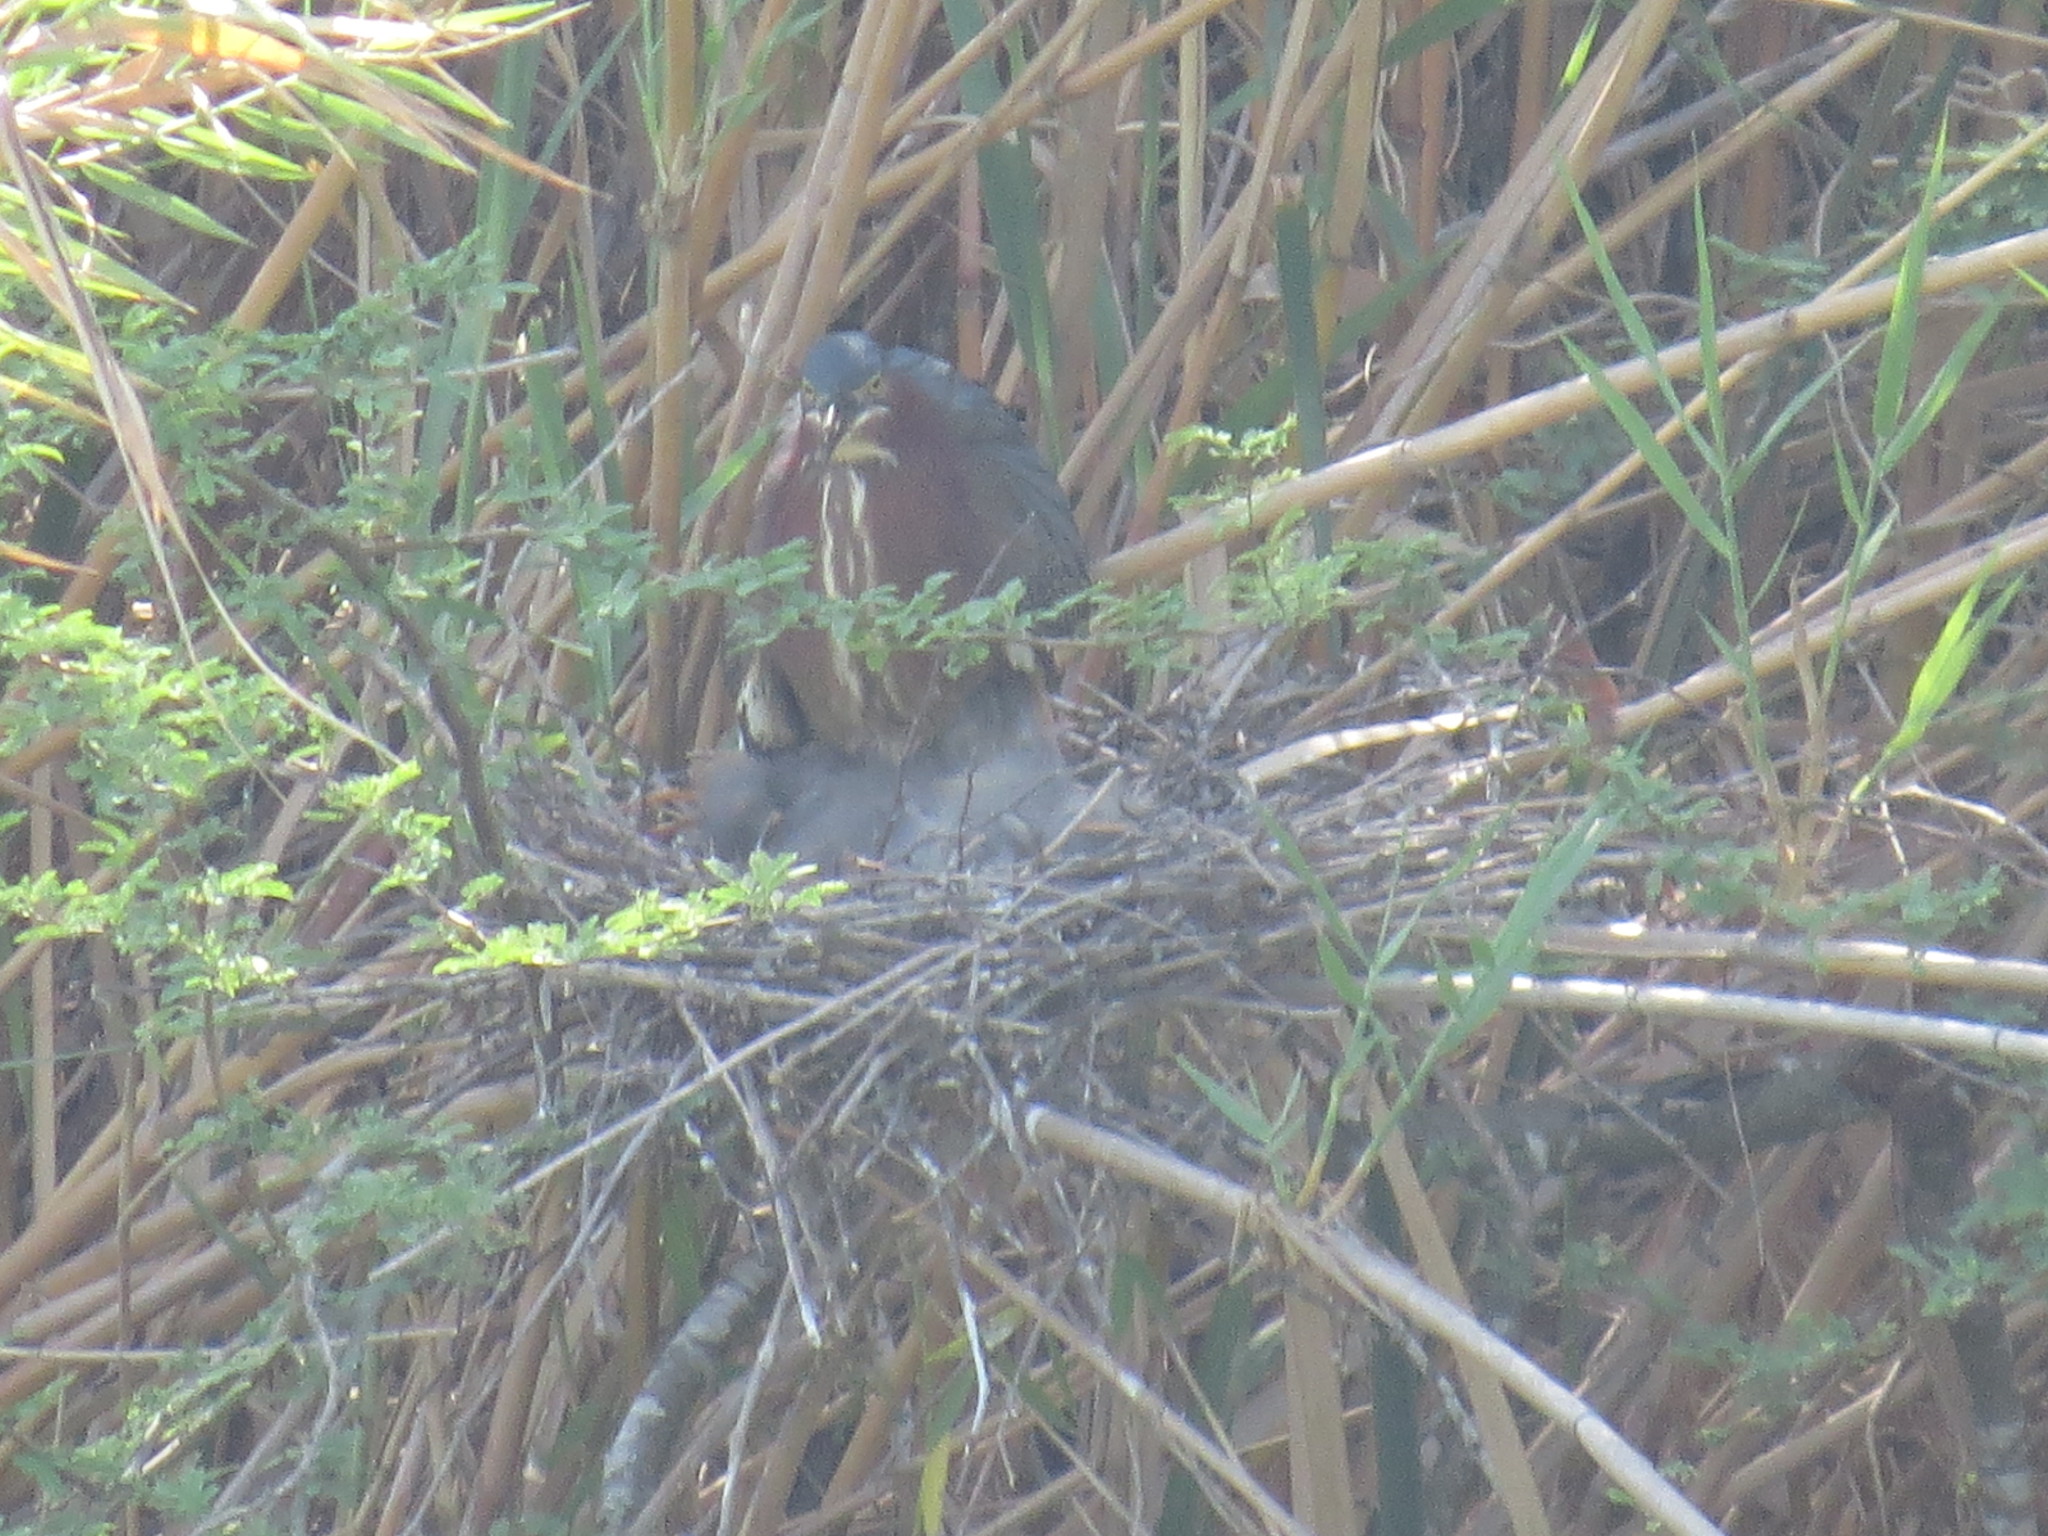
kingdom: Animalia
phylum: Chordata
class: Aves
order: Pelecaniformes
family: Ardeidae
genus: Butorides
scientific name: Butorides virescens
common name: Green heron
